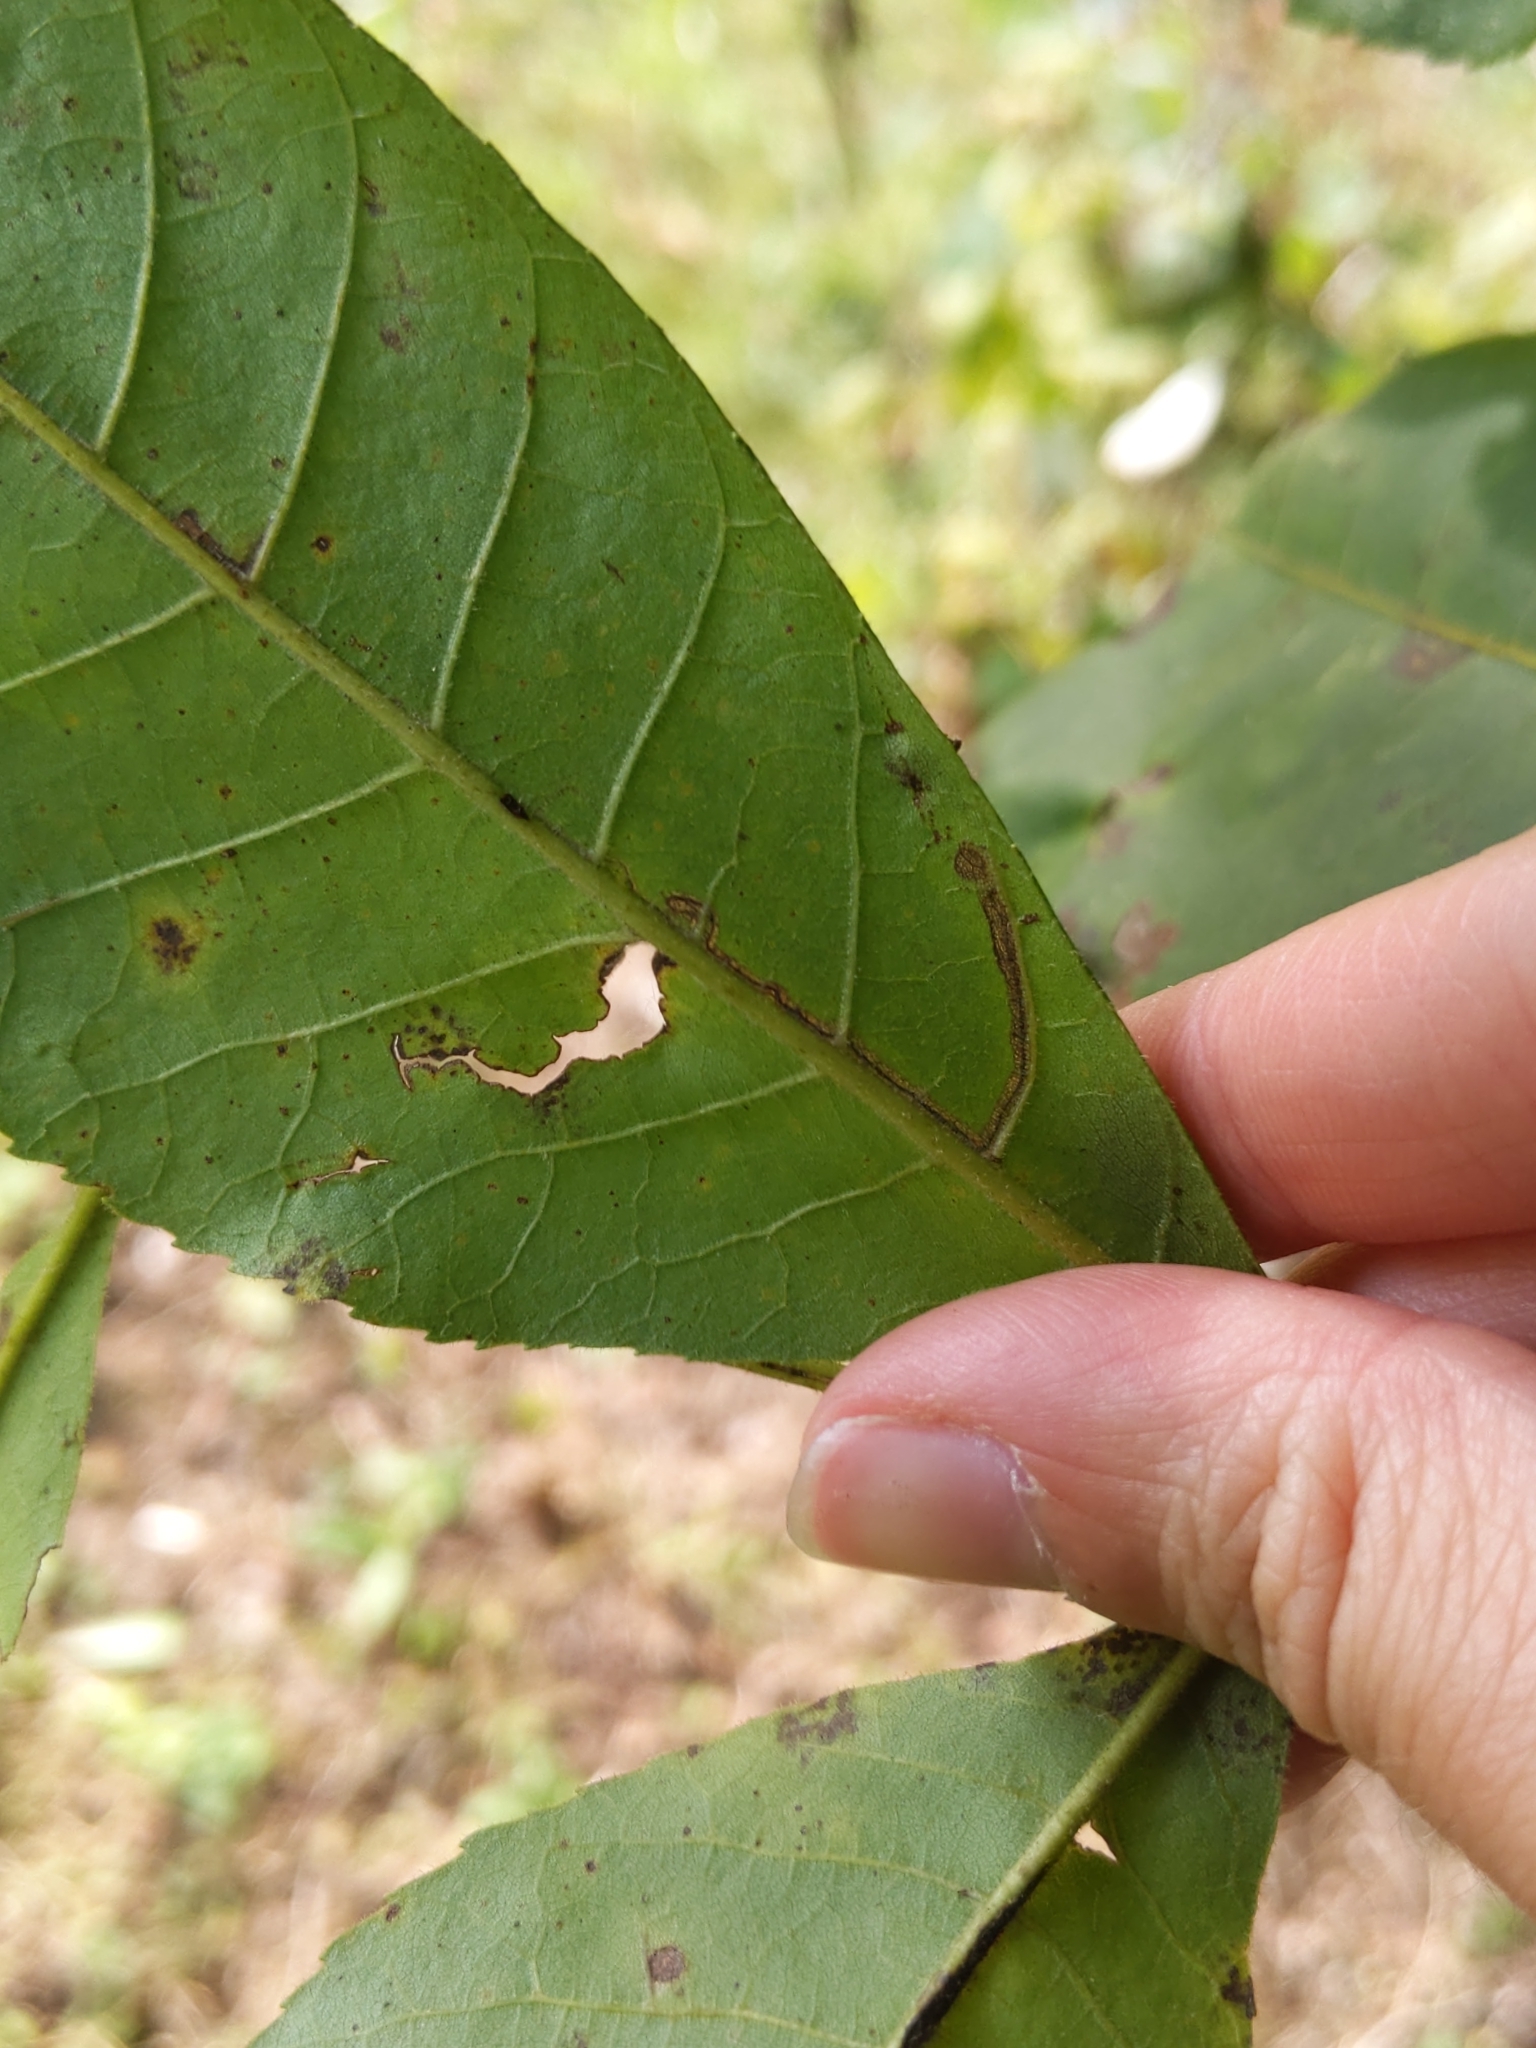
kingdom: Animalia
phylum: Arthropoda
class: Insecta
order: Lepidoptera
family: Nepticulidae
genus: Stigmella
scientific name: Stigmella caryaefoliella
